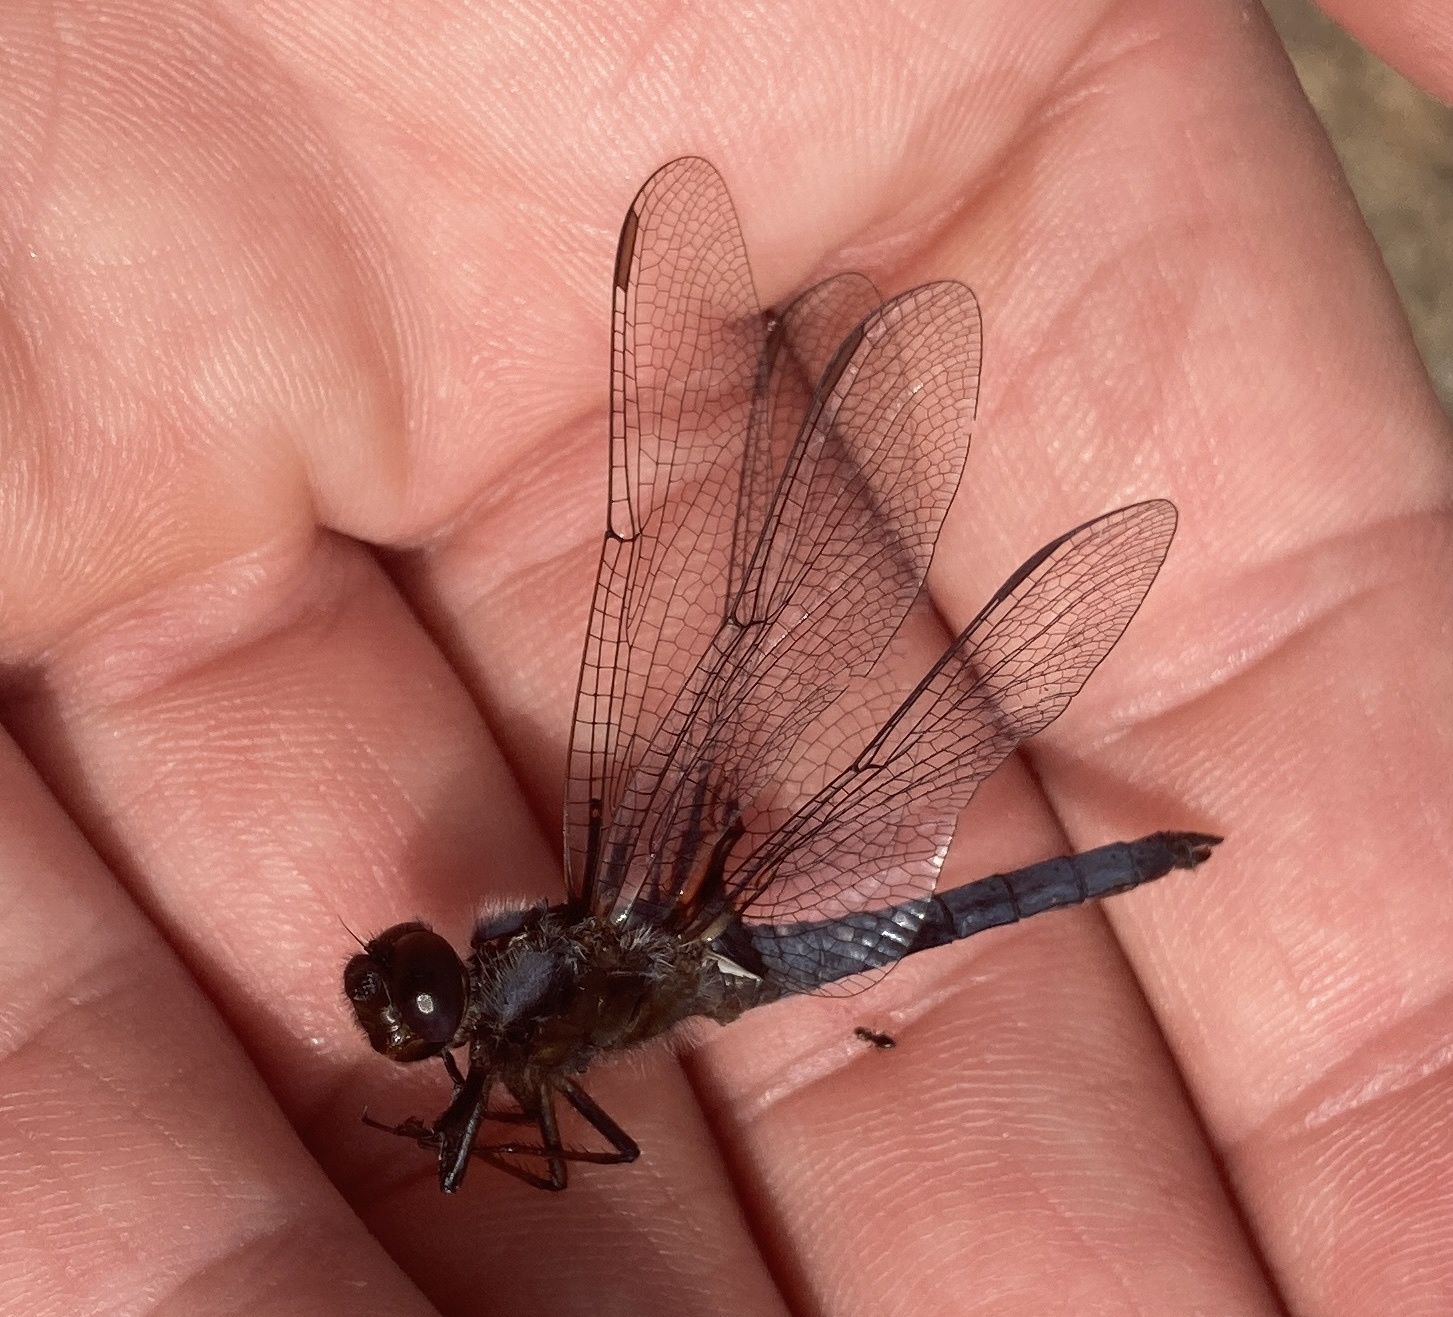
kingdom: Animalia
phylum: Arthropoda
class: Insecta
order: Odonata
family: Libellulidae
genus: Ladona
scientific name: Ladona deplanata
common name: Blue corporal
